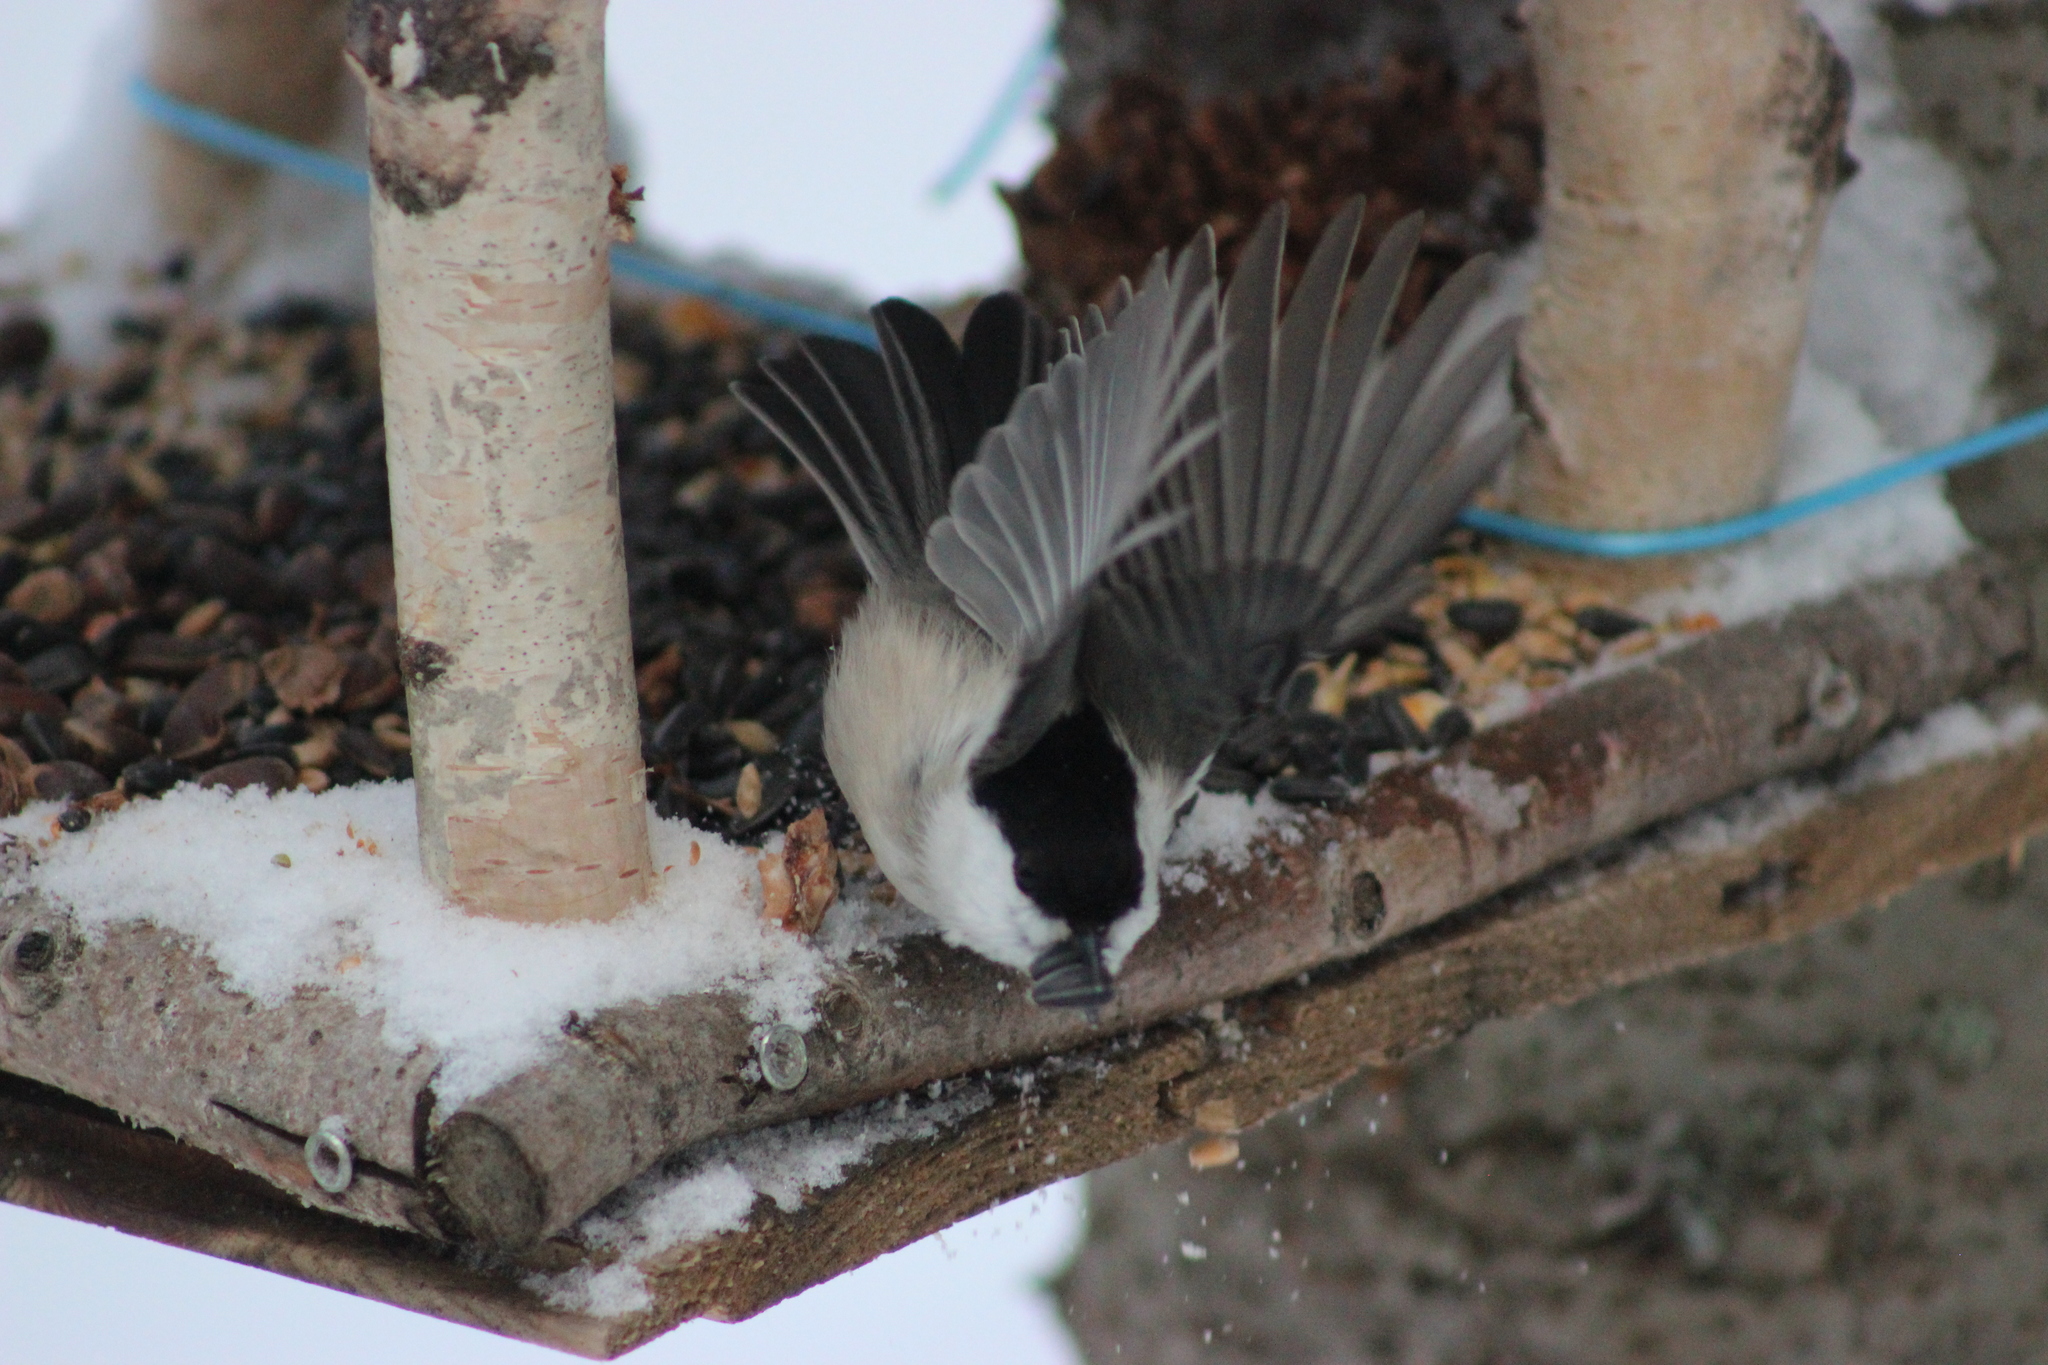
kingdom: Animalia
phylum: Chordata
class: Aves
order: Passeriformes
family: Paridae
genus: Poecile
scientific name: Poecile montanus
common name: Willow tit
